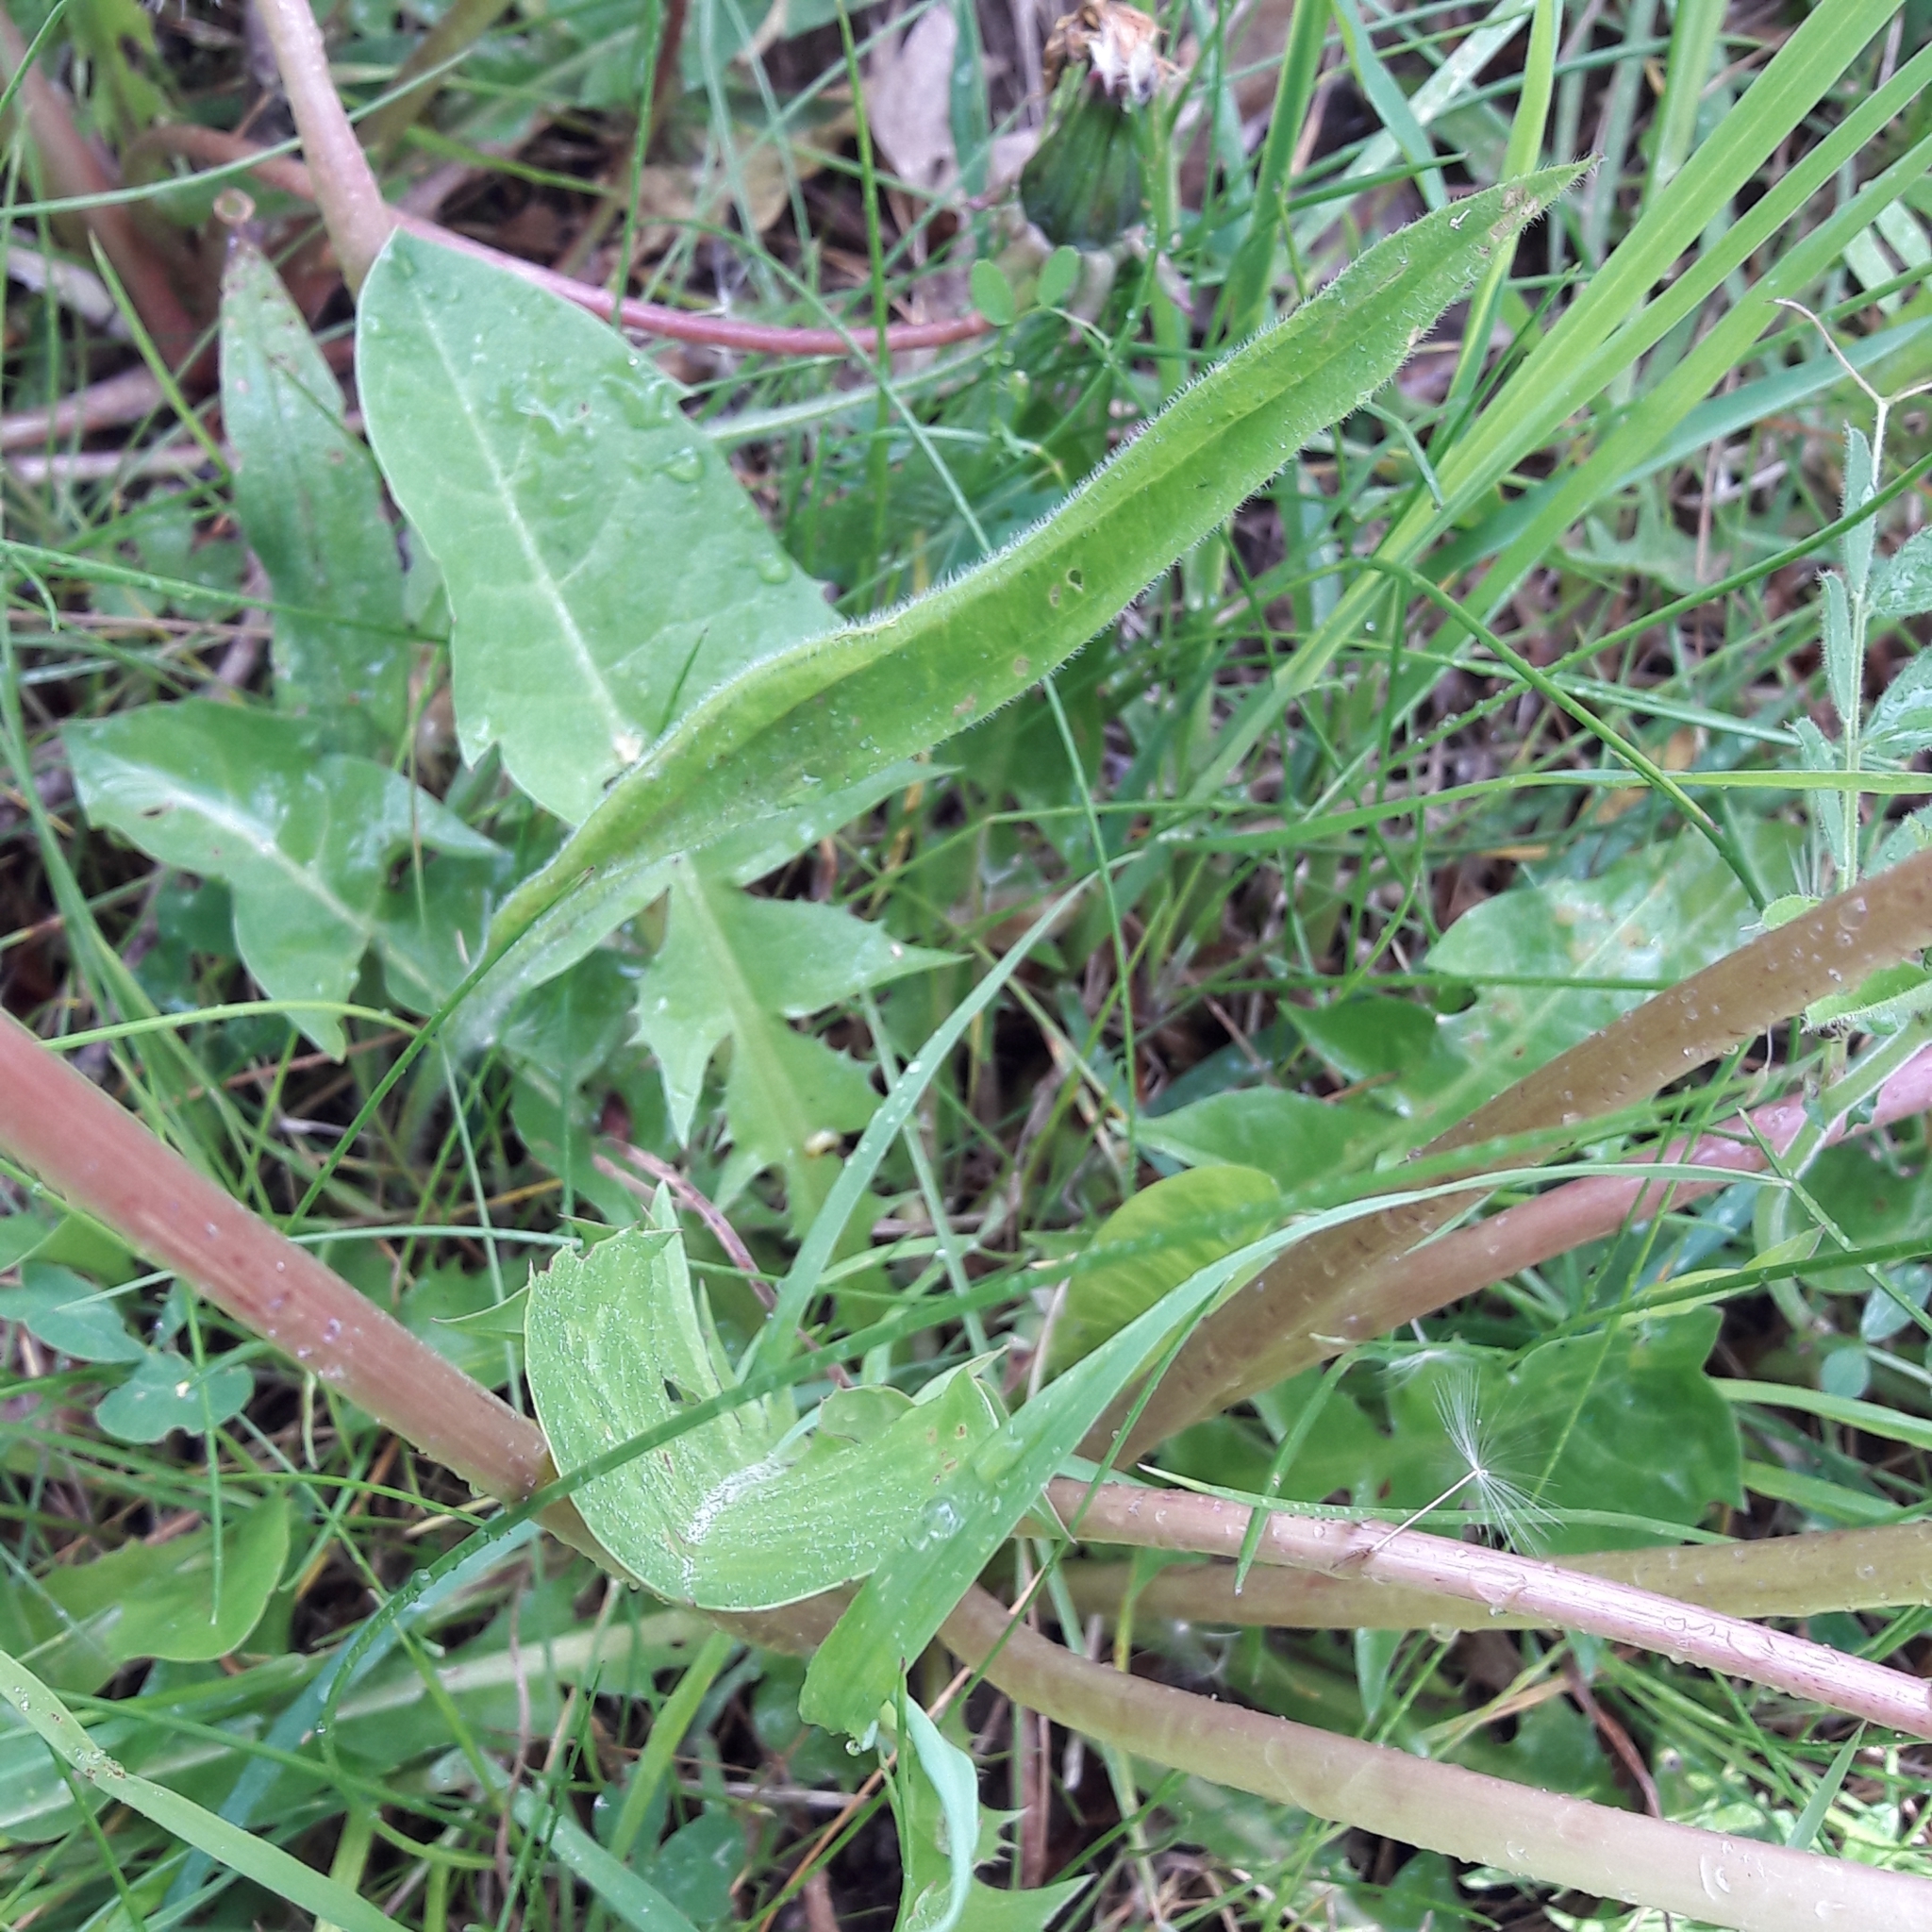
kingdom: Plantae
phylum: Tracheophyta
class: Magnoliopsida
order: Asterales
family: Asteraceae
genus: Taraxacum
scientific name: Taraxacum officinale
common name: Common dandelion
